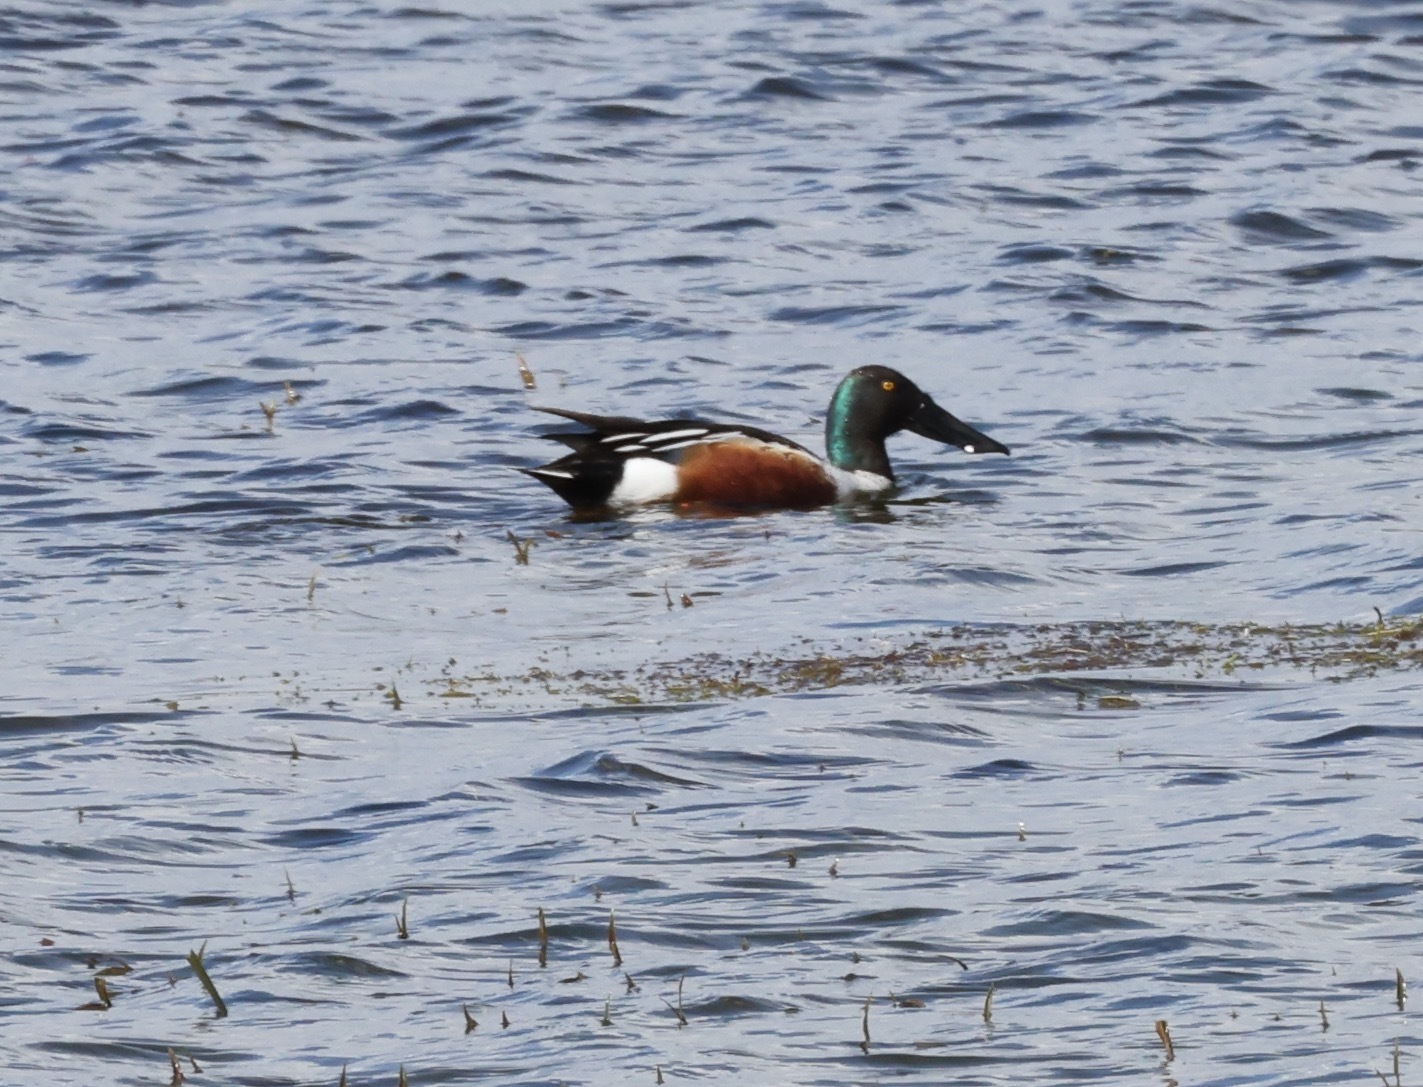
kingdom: Animalia
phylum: Chordata
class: Aves
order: Anseriformes
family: Anatidae
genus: Spatula
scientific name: Spatula clypeata
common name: Northern shoveler
